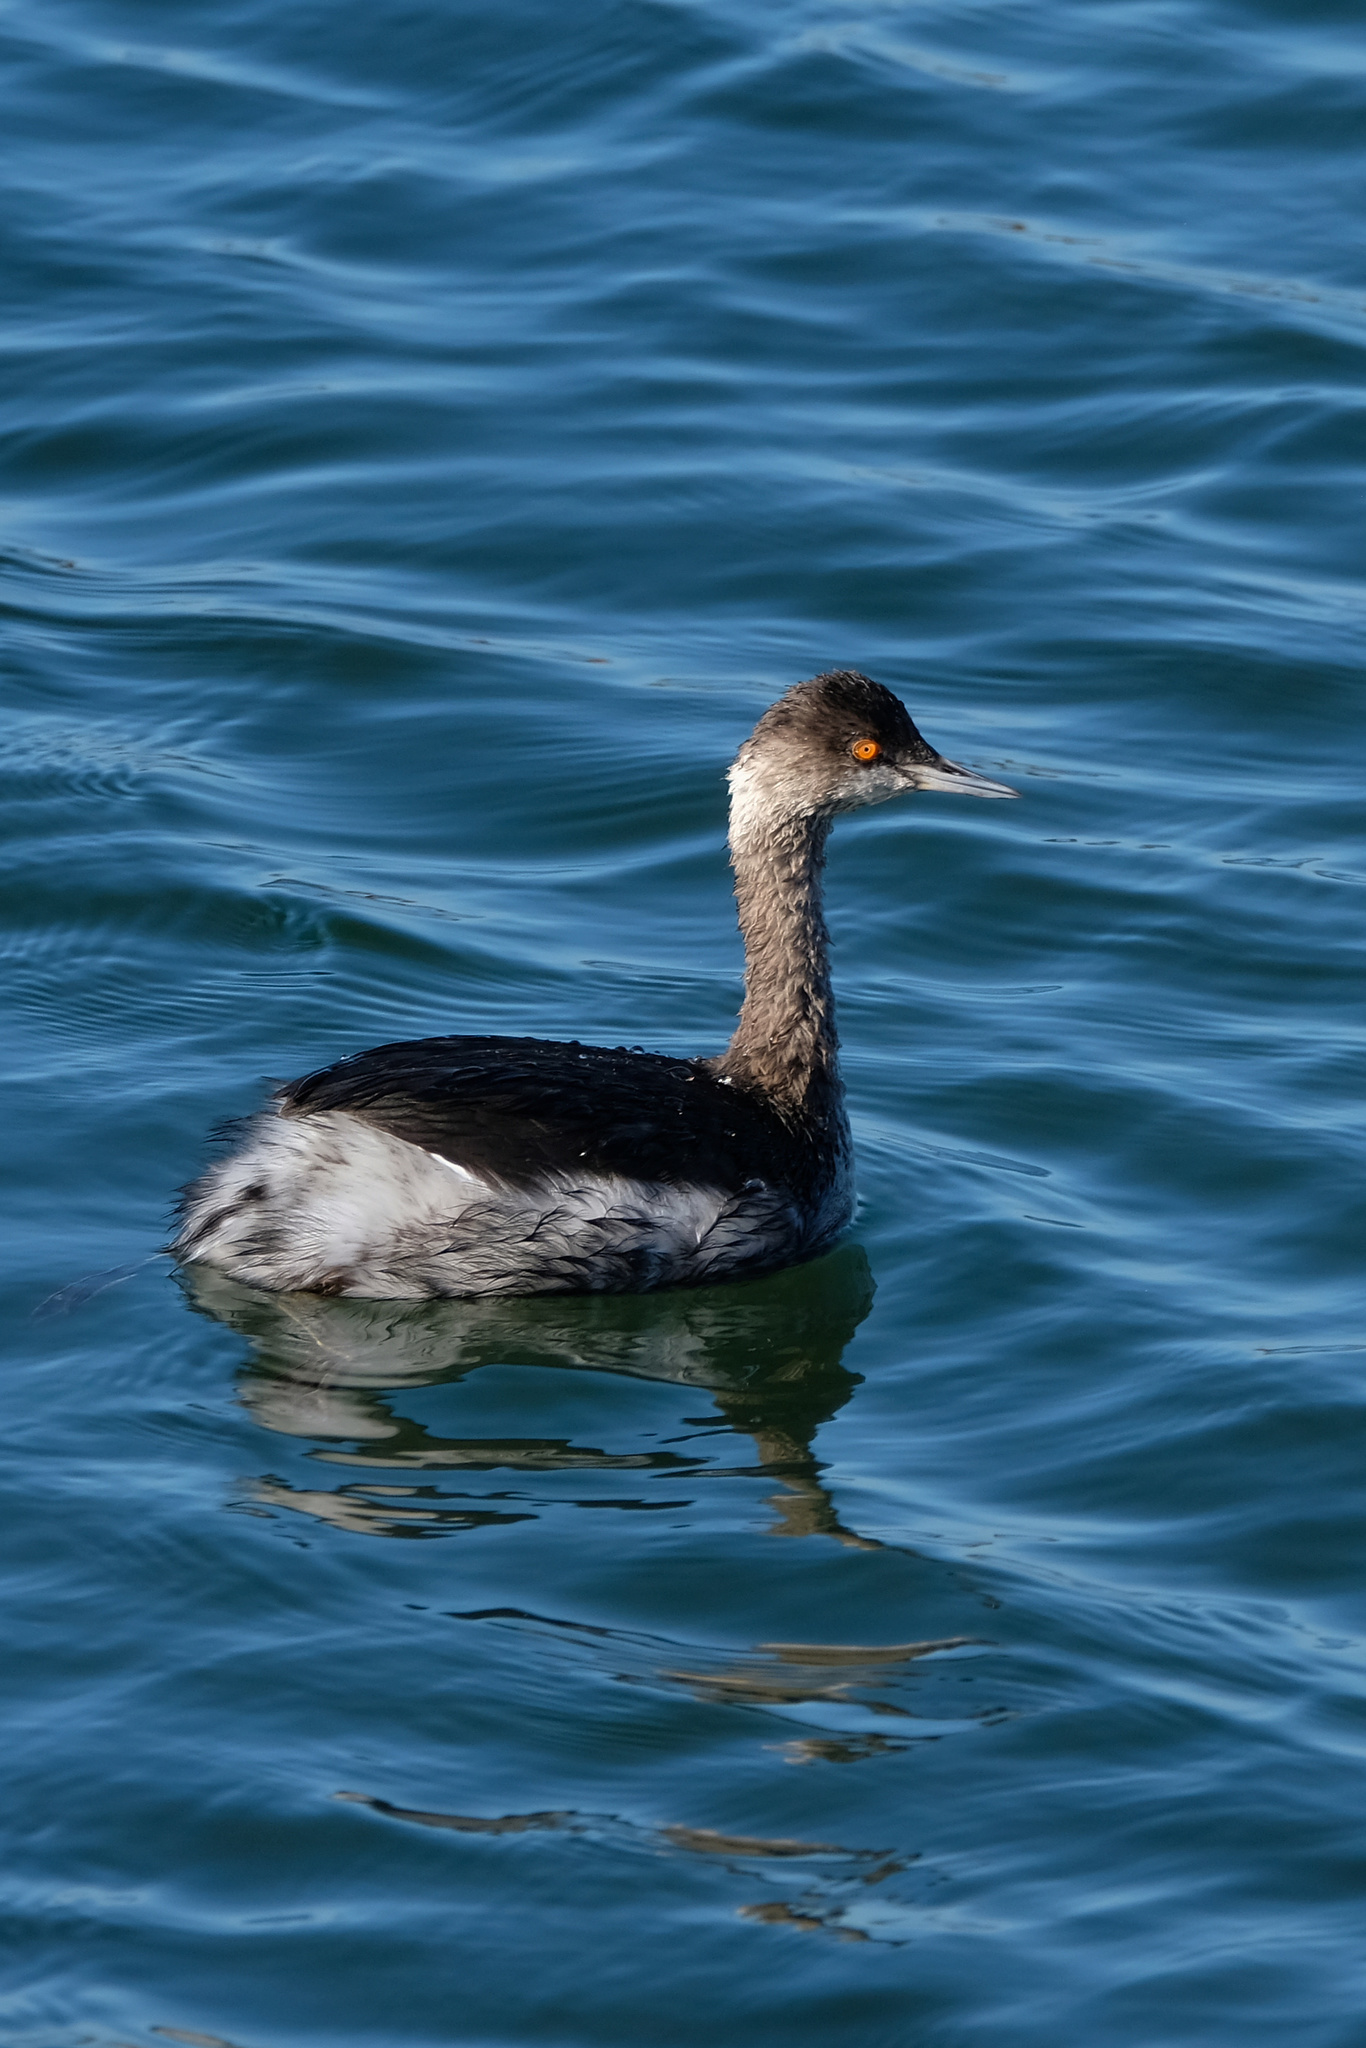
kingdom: Animalia
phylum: Chordata
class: Aves
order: Podicipediformes
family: Podicipedidae
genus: Podiceps
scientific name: Podiceps nigricollis
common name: Black-necked grebe
